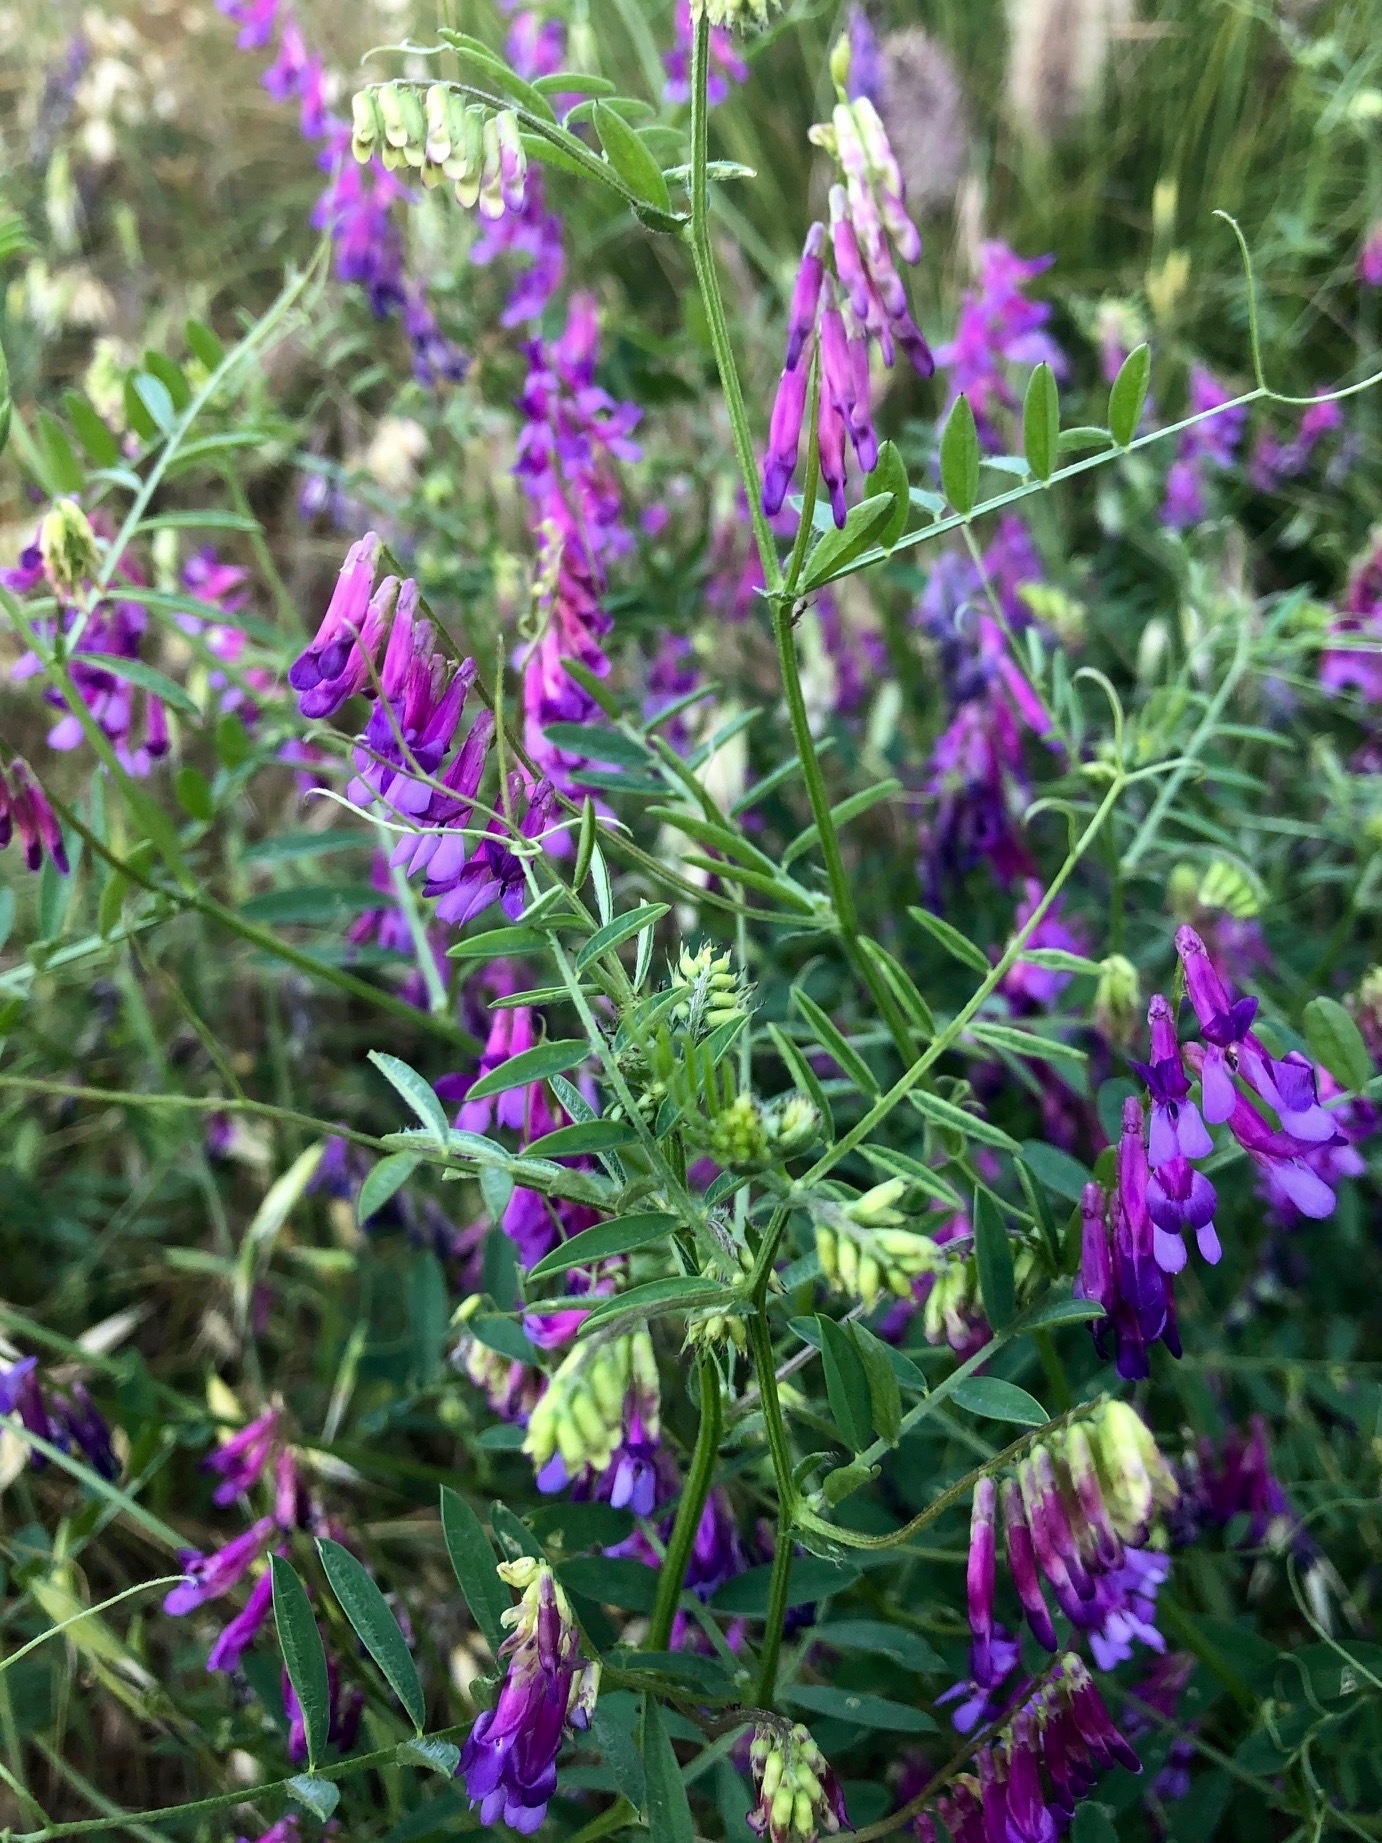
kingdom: Plantae
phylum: Tracheophyta
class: Magnoliopsida
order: Fabales
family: Fabaceae
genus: Vicia
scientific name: Vicia villosa
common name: Fodder vetch
